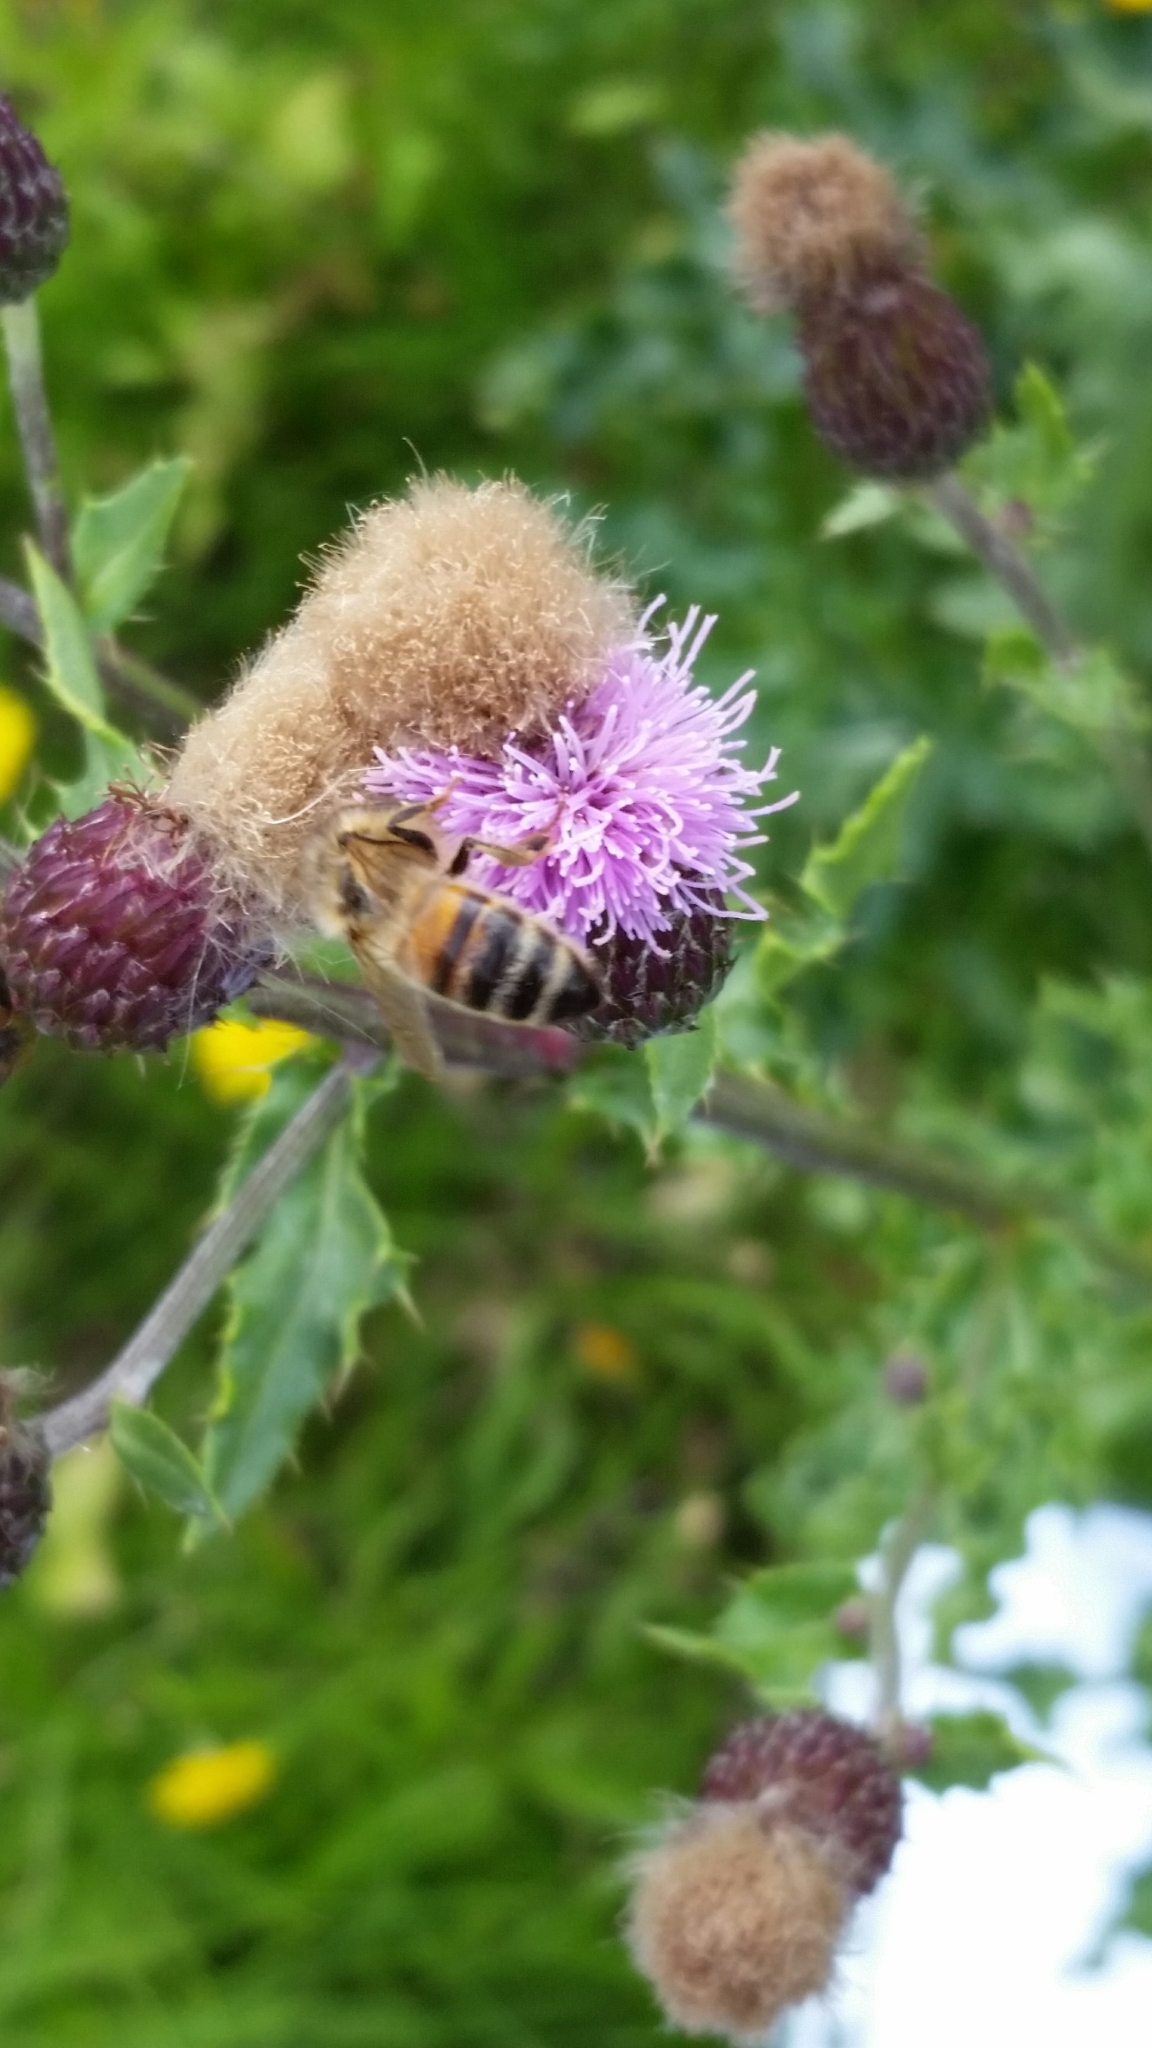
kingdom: Animalia
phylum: Arthropoda
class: Insecta
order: Hymenoptera
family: Apidae
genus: Apis
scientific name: Apis mellifera
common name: Honey bee
